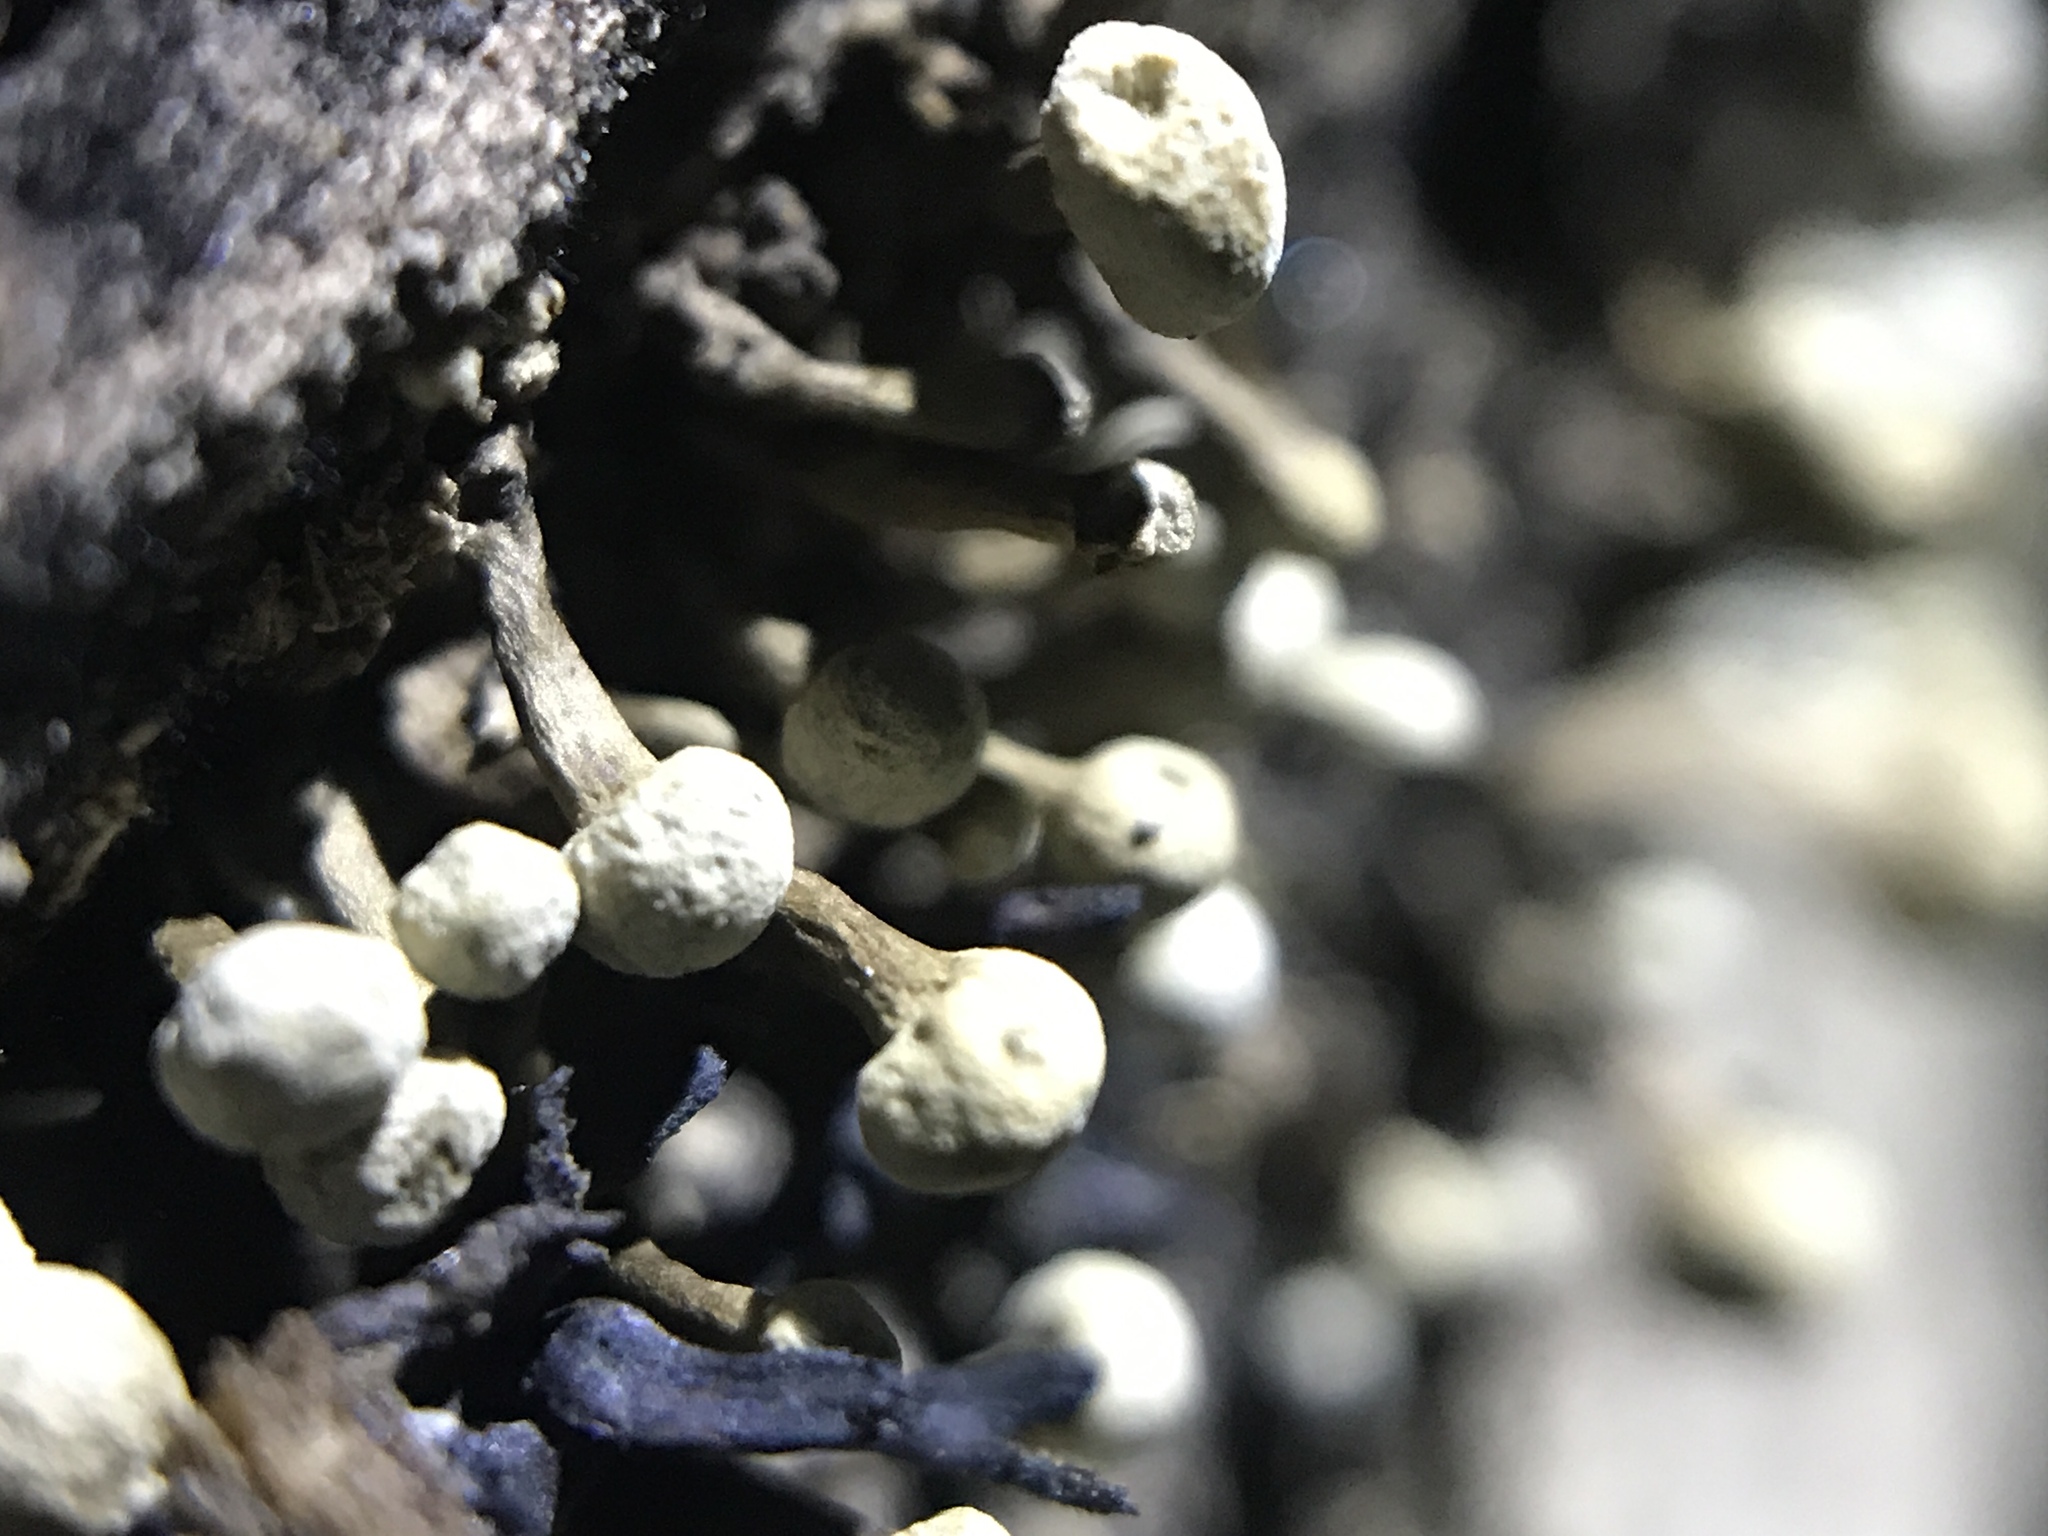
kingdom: Fungi
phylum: Basidiomycota
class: Atractiellomycetes
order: Atractiellales
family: Phleogenaceae
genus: Phleogena
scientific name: Phleogena faginea
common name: Fenugreek stalkball
